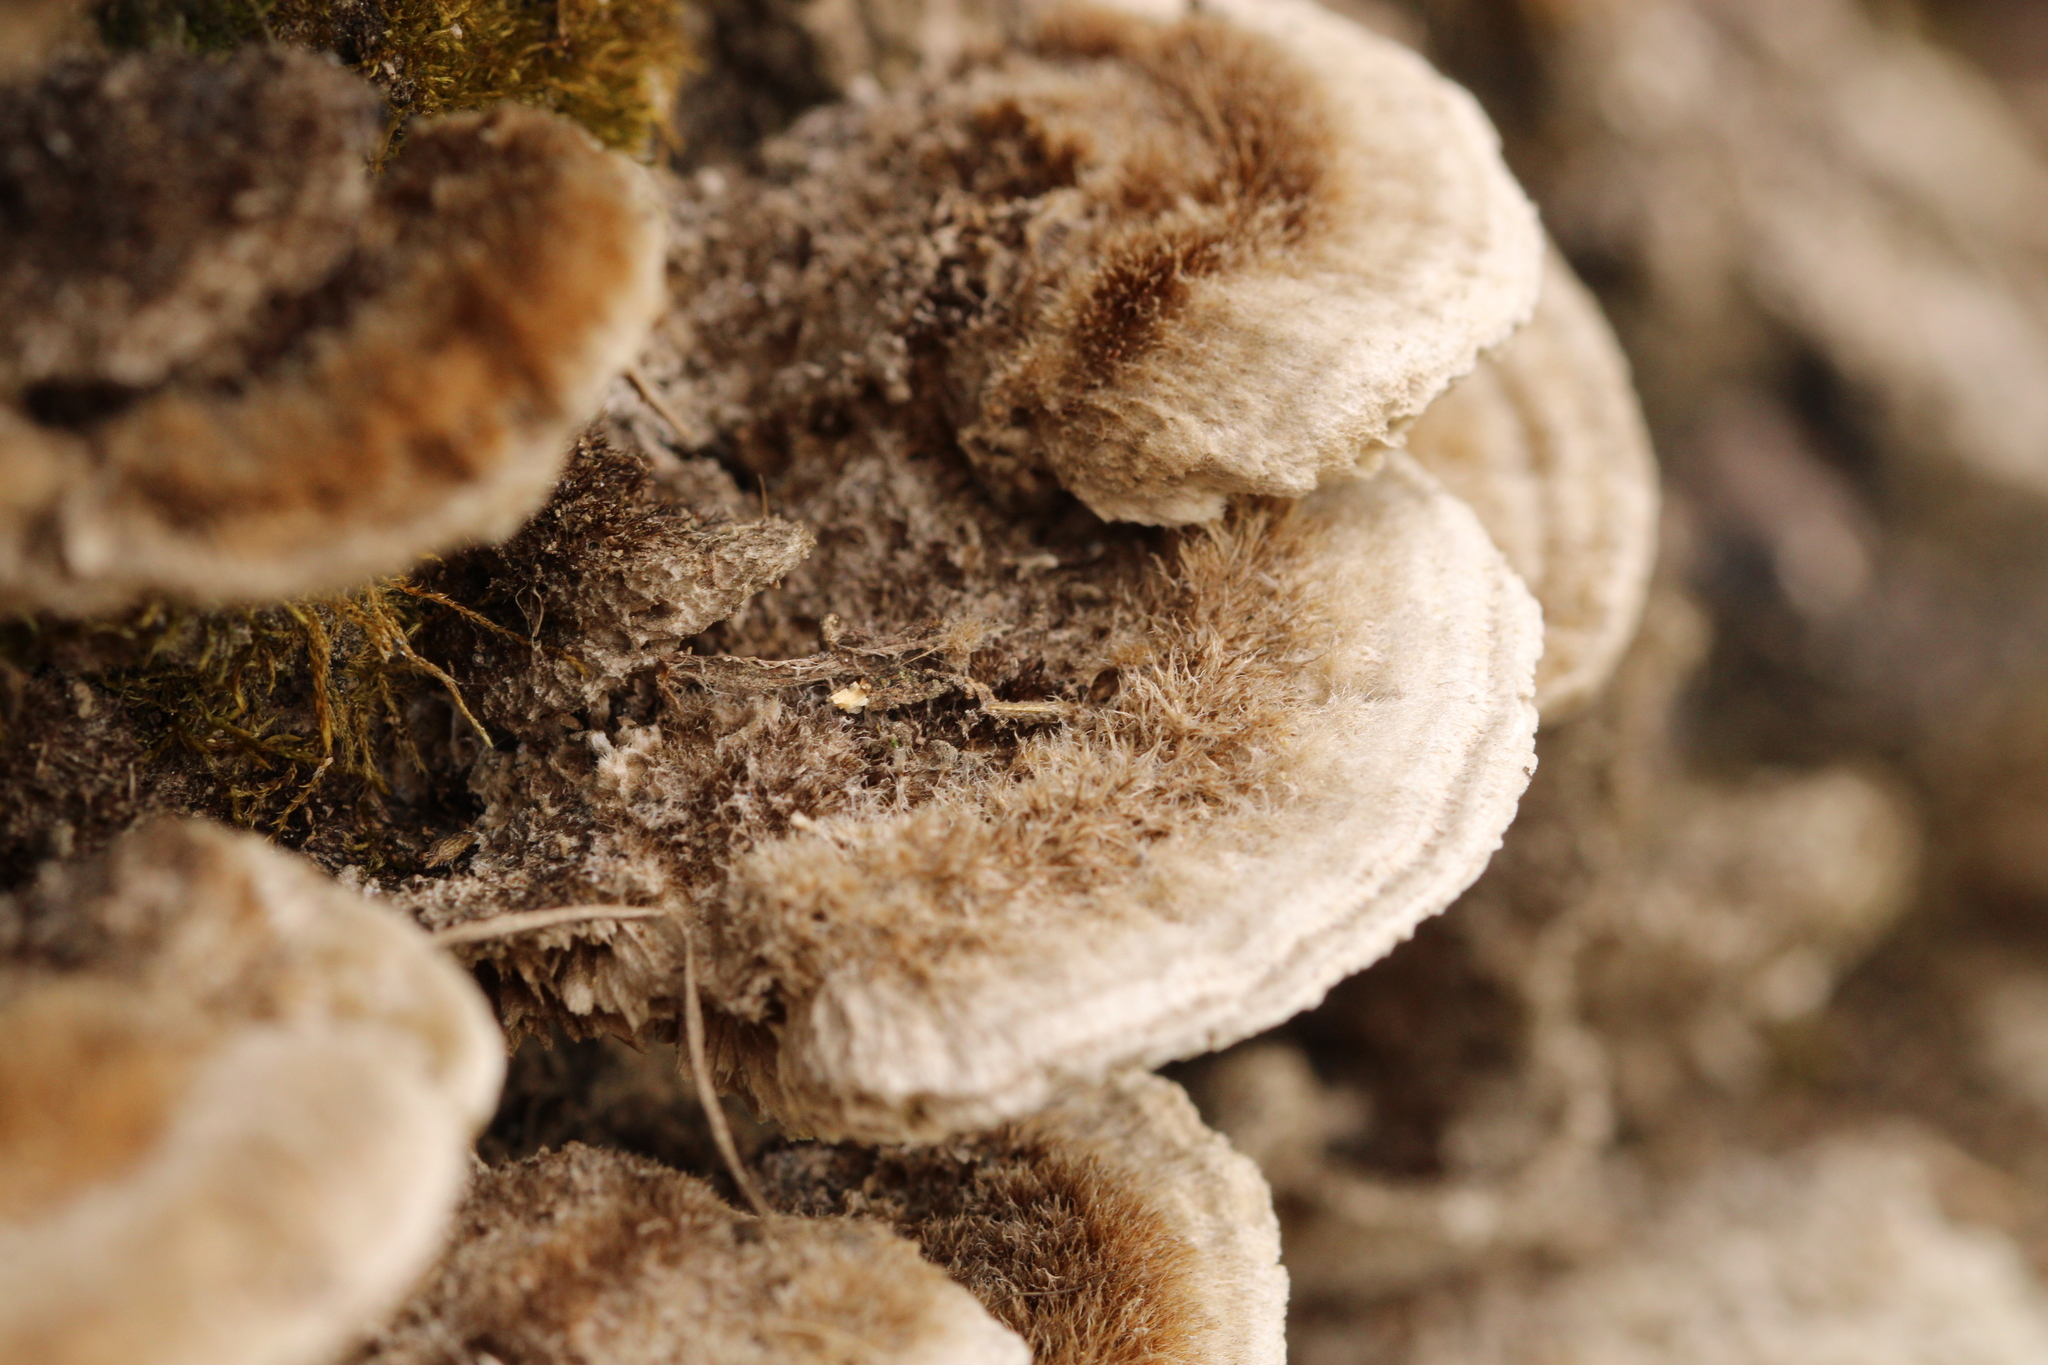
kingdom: Fungi
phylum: Basidiomycota
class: Agaricomycetes
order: Polyporales
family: Polyporaceae
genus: Coriolopsis
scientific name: Coriolopsis gallica
